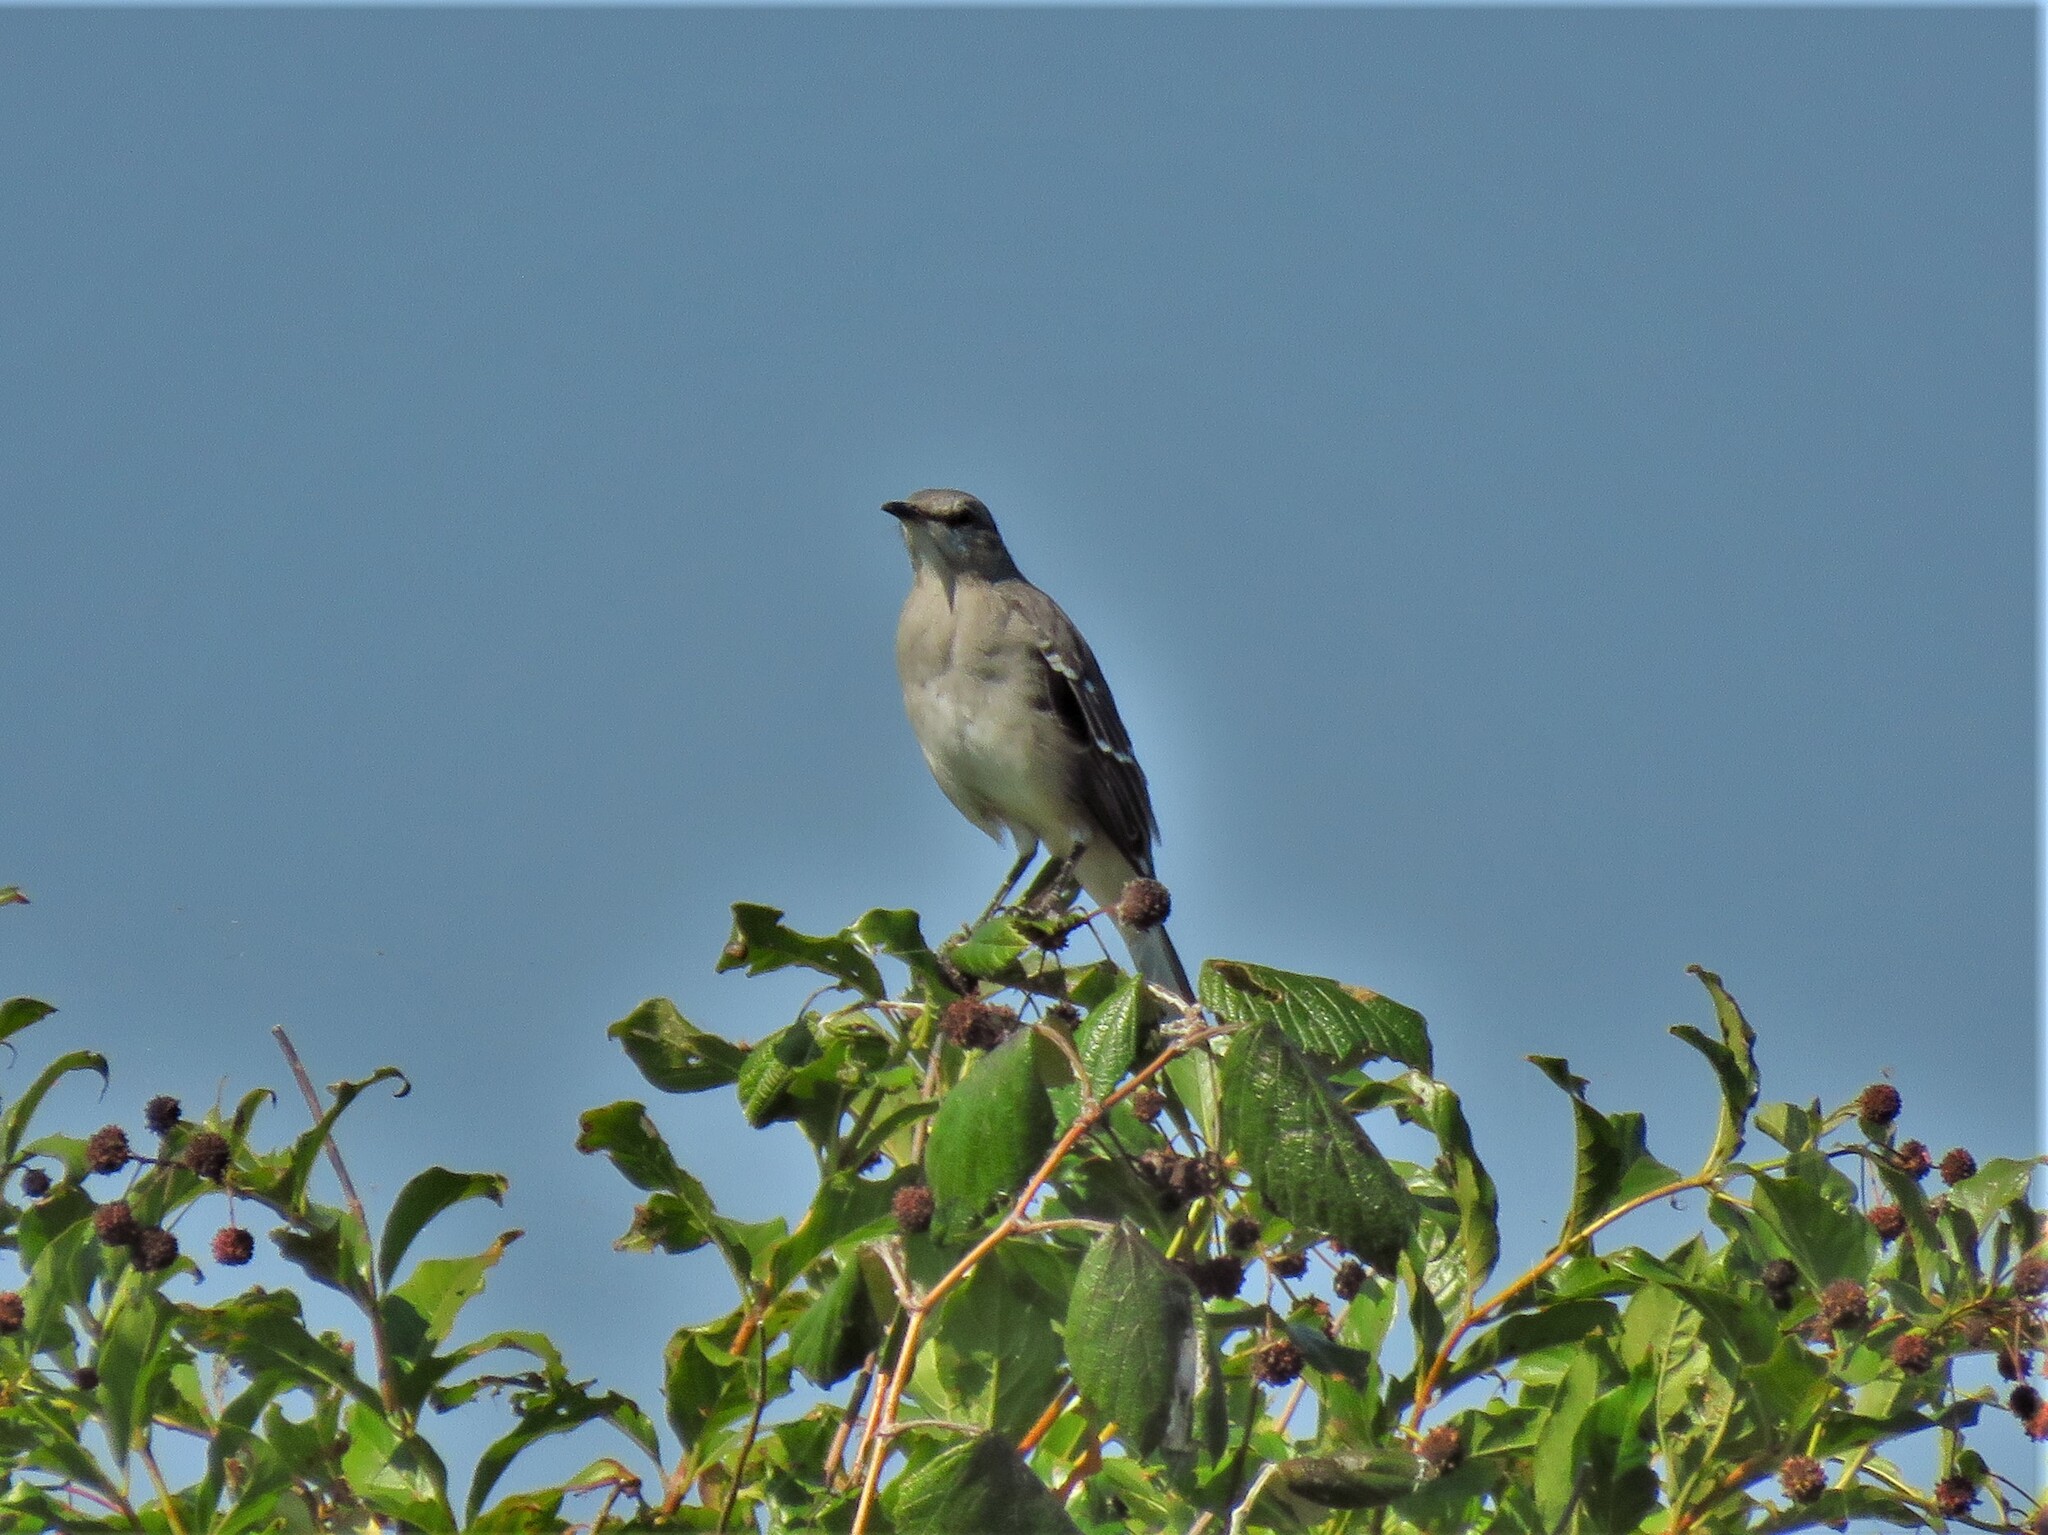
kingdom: Animalia
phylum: Chordata
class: Aves
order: Passeriformes
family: Mimidae
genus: Mimus
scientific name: Mimus polyglottos
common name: Northern mockingbird
